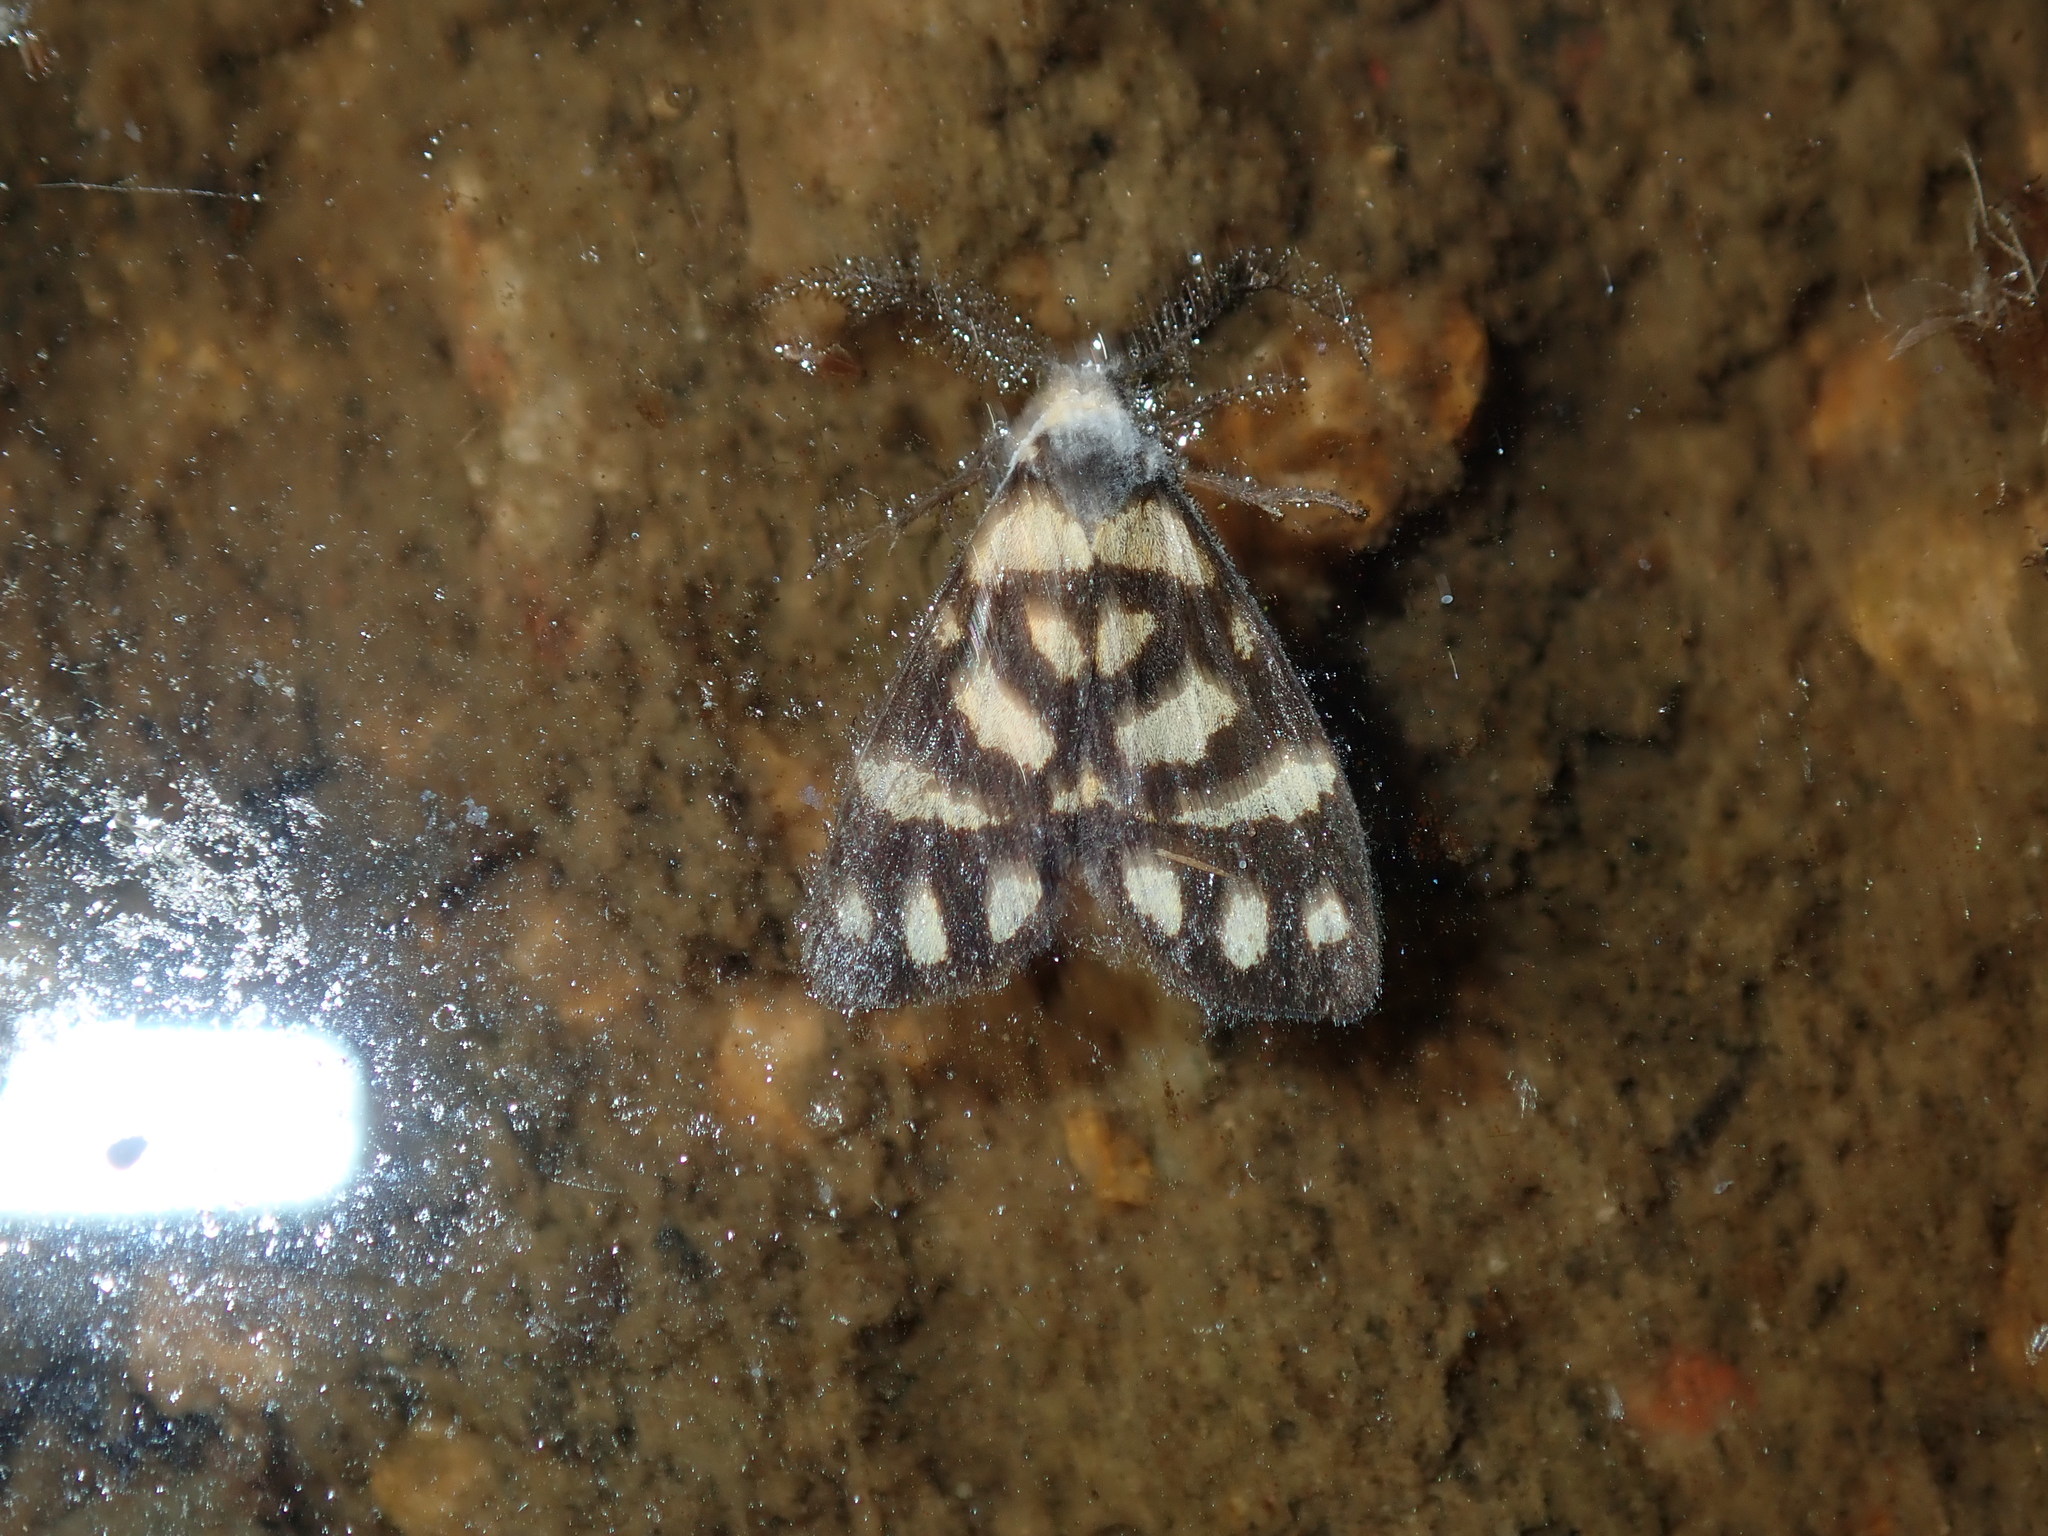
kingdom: Animalia
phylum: Arthropoda
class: Insecta
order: Lepidoptera
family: Erebidae
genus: Asura
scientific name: Asura lydia
